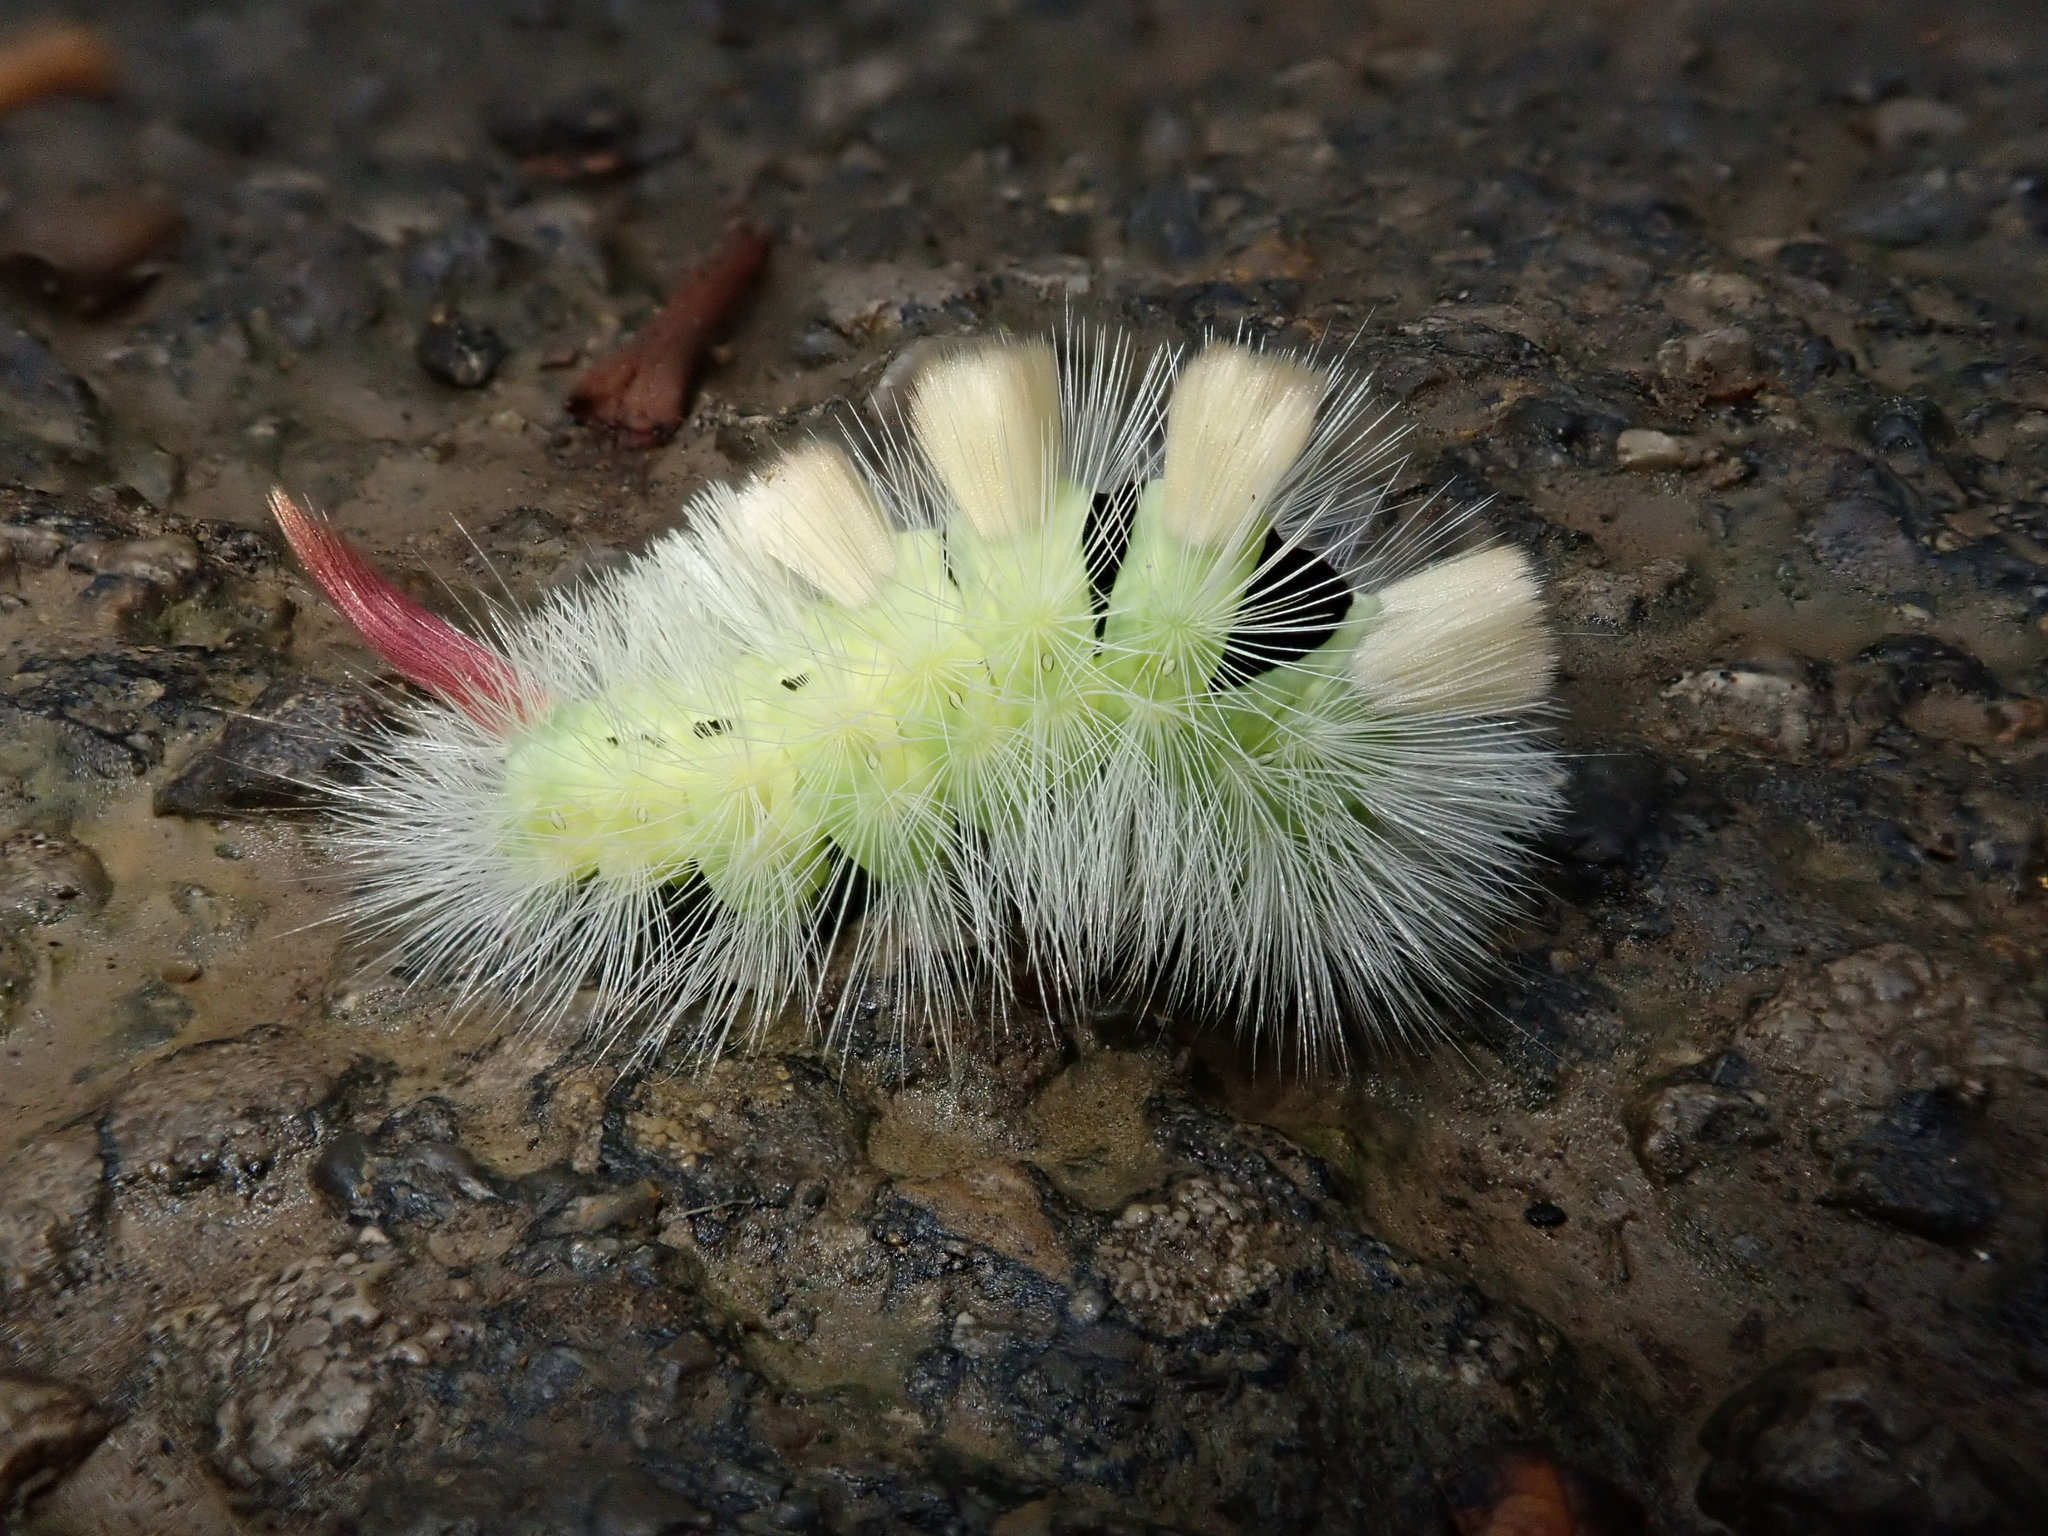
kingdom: Animalia
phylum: Arthropoda
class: Insecta
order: Lepidoptera
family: Erebidae
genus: Calliteara
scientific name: Calliteara pudibunda
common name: Pale tussock
